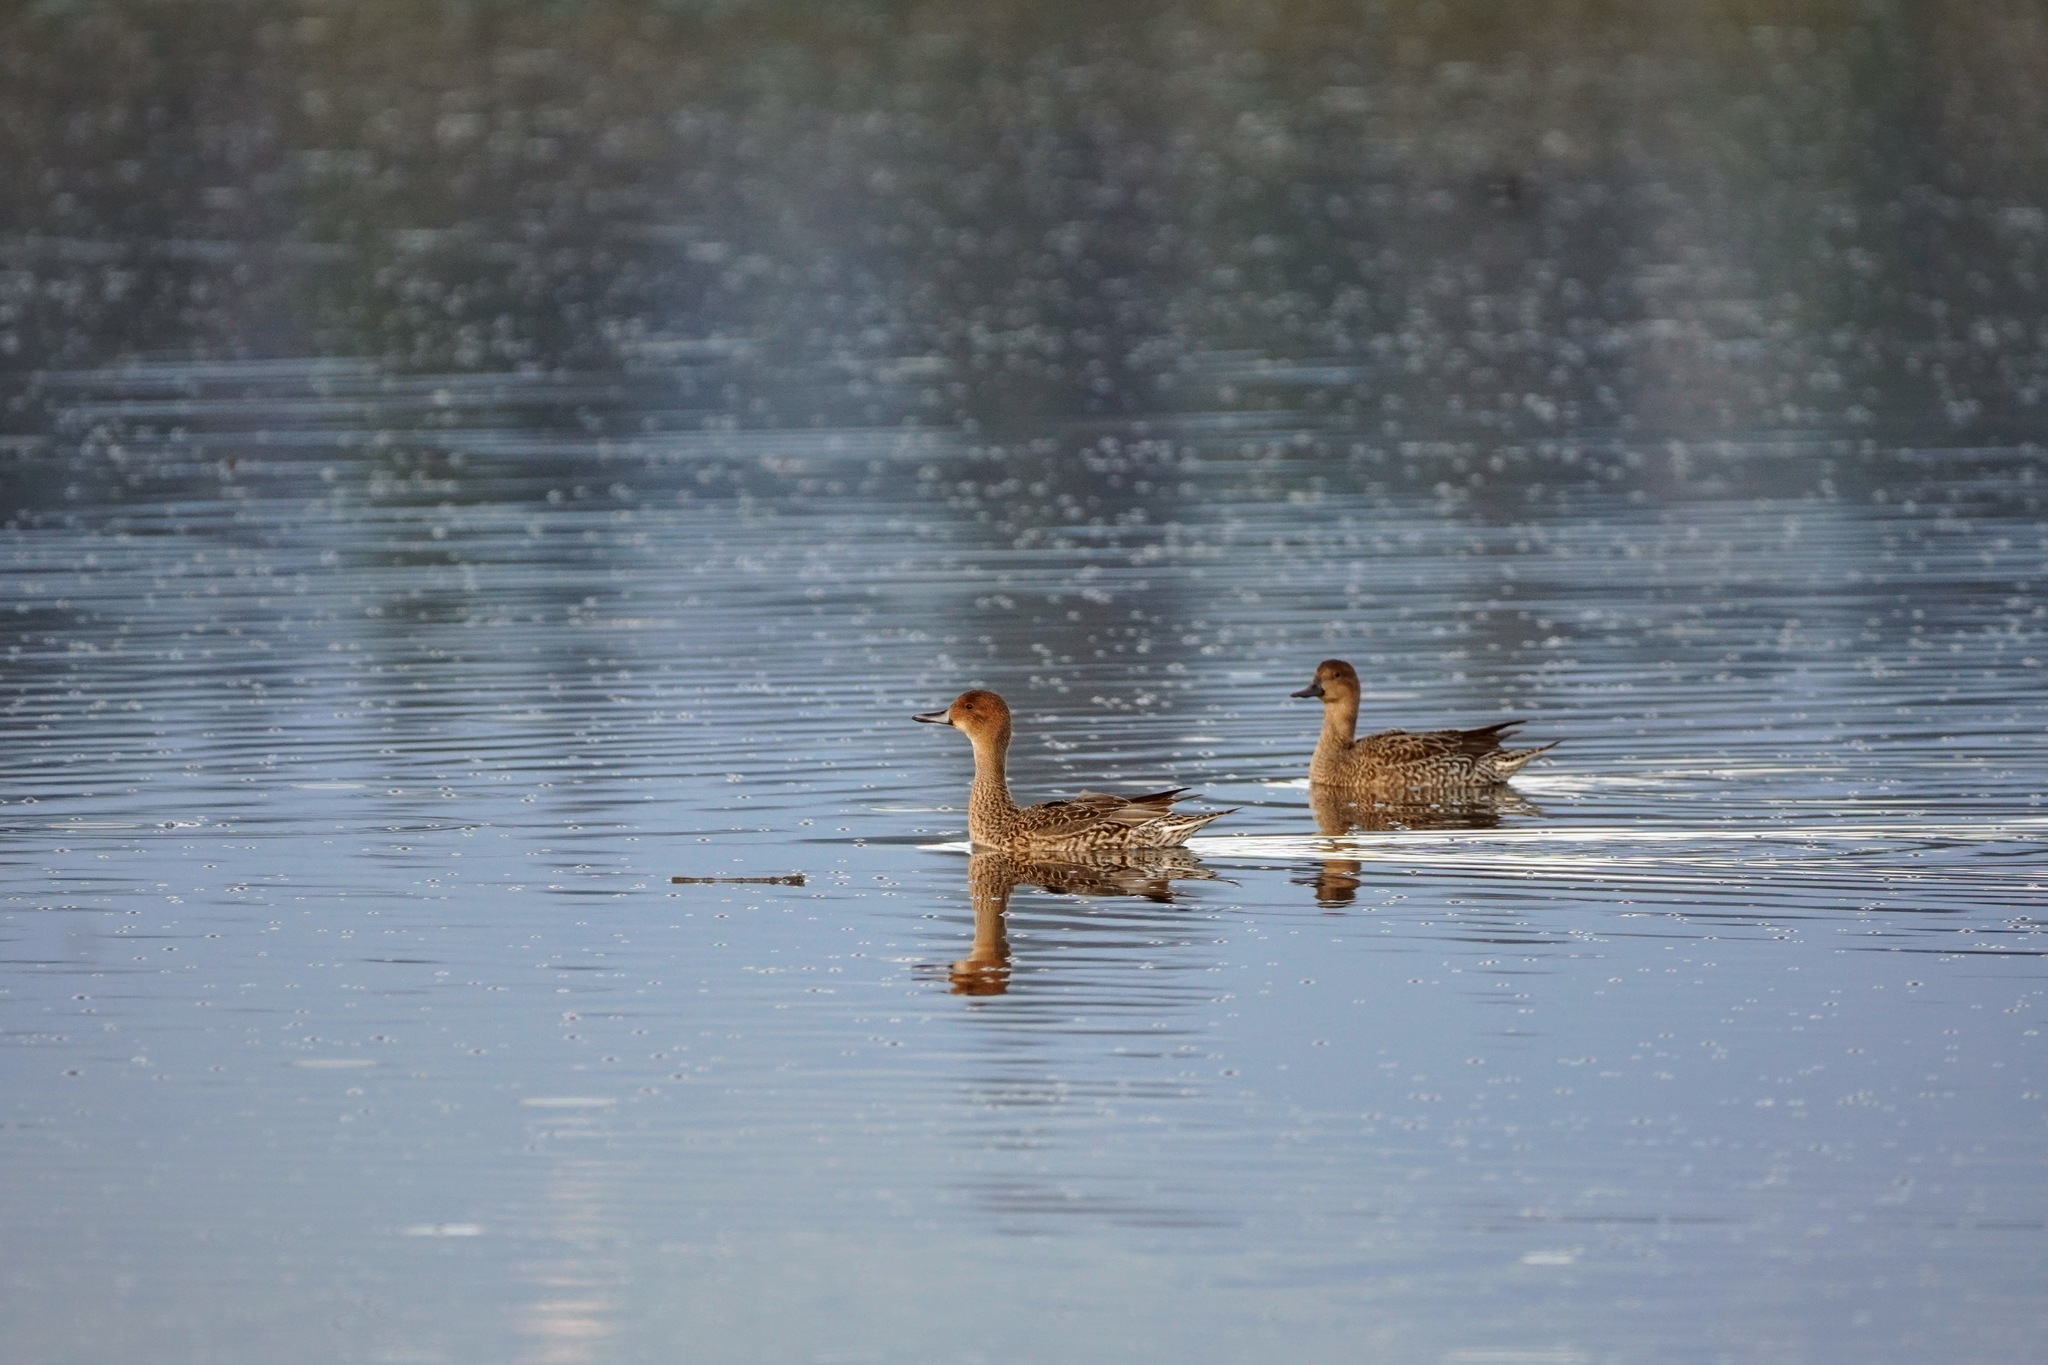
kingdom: Animalia
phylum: Chordata
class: Aves
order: Anseriformes
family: Anatidae
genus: Anas
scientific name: Anas acuta
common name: Northern pintail
